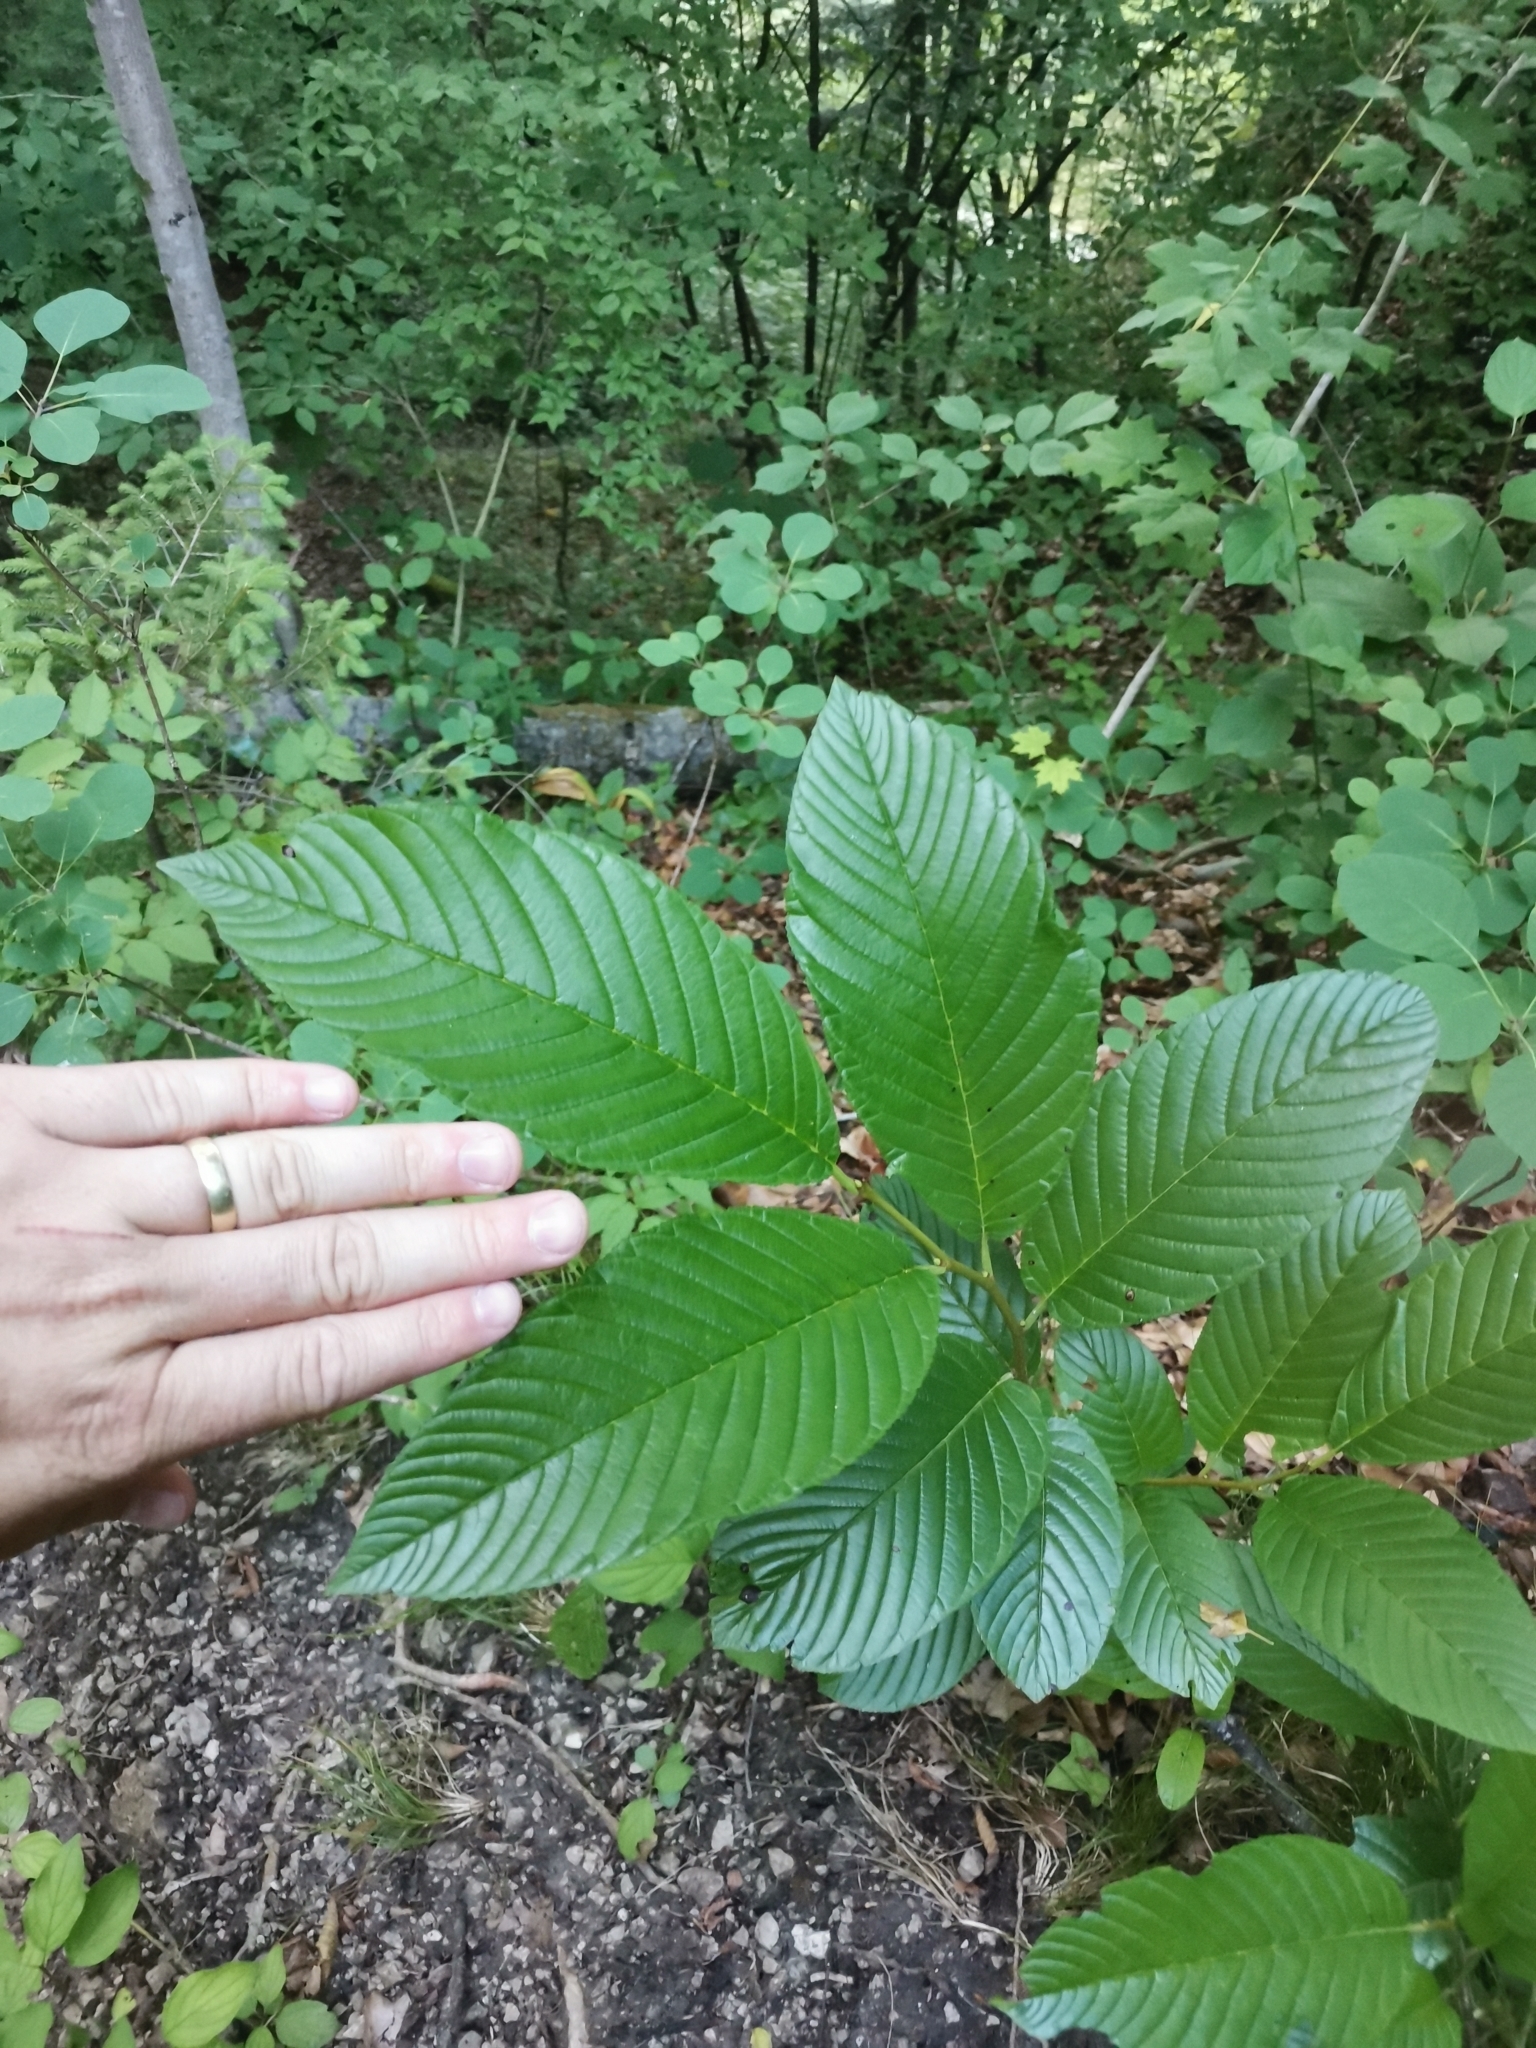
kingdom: Plantae
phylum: Tracheophyta
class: Magnoliopsida
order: Rosales
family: Rhamnaceae
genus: Atadinus
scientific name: Atadinus fallax
